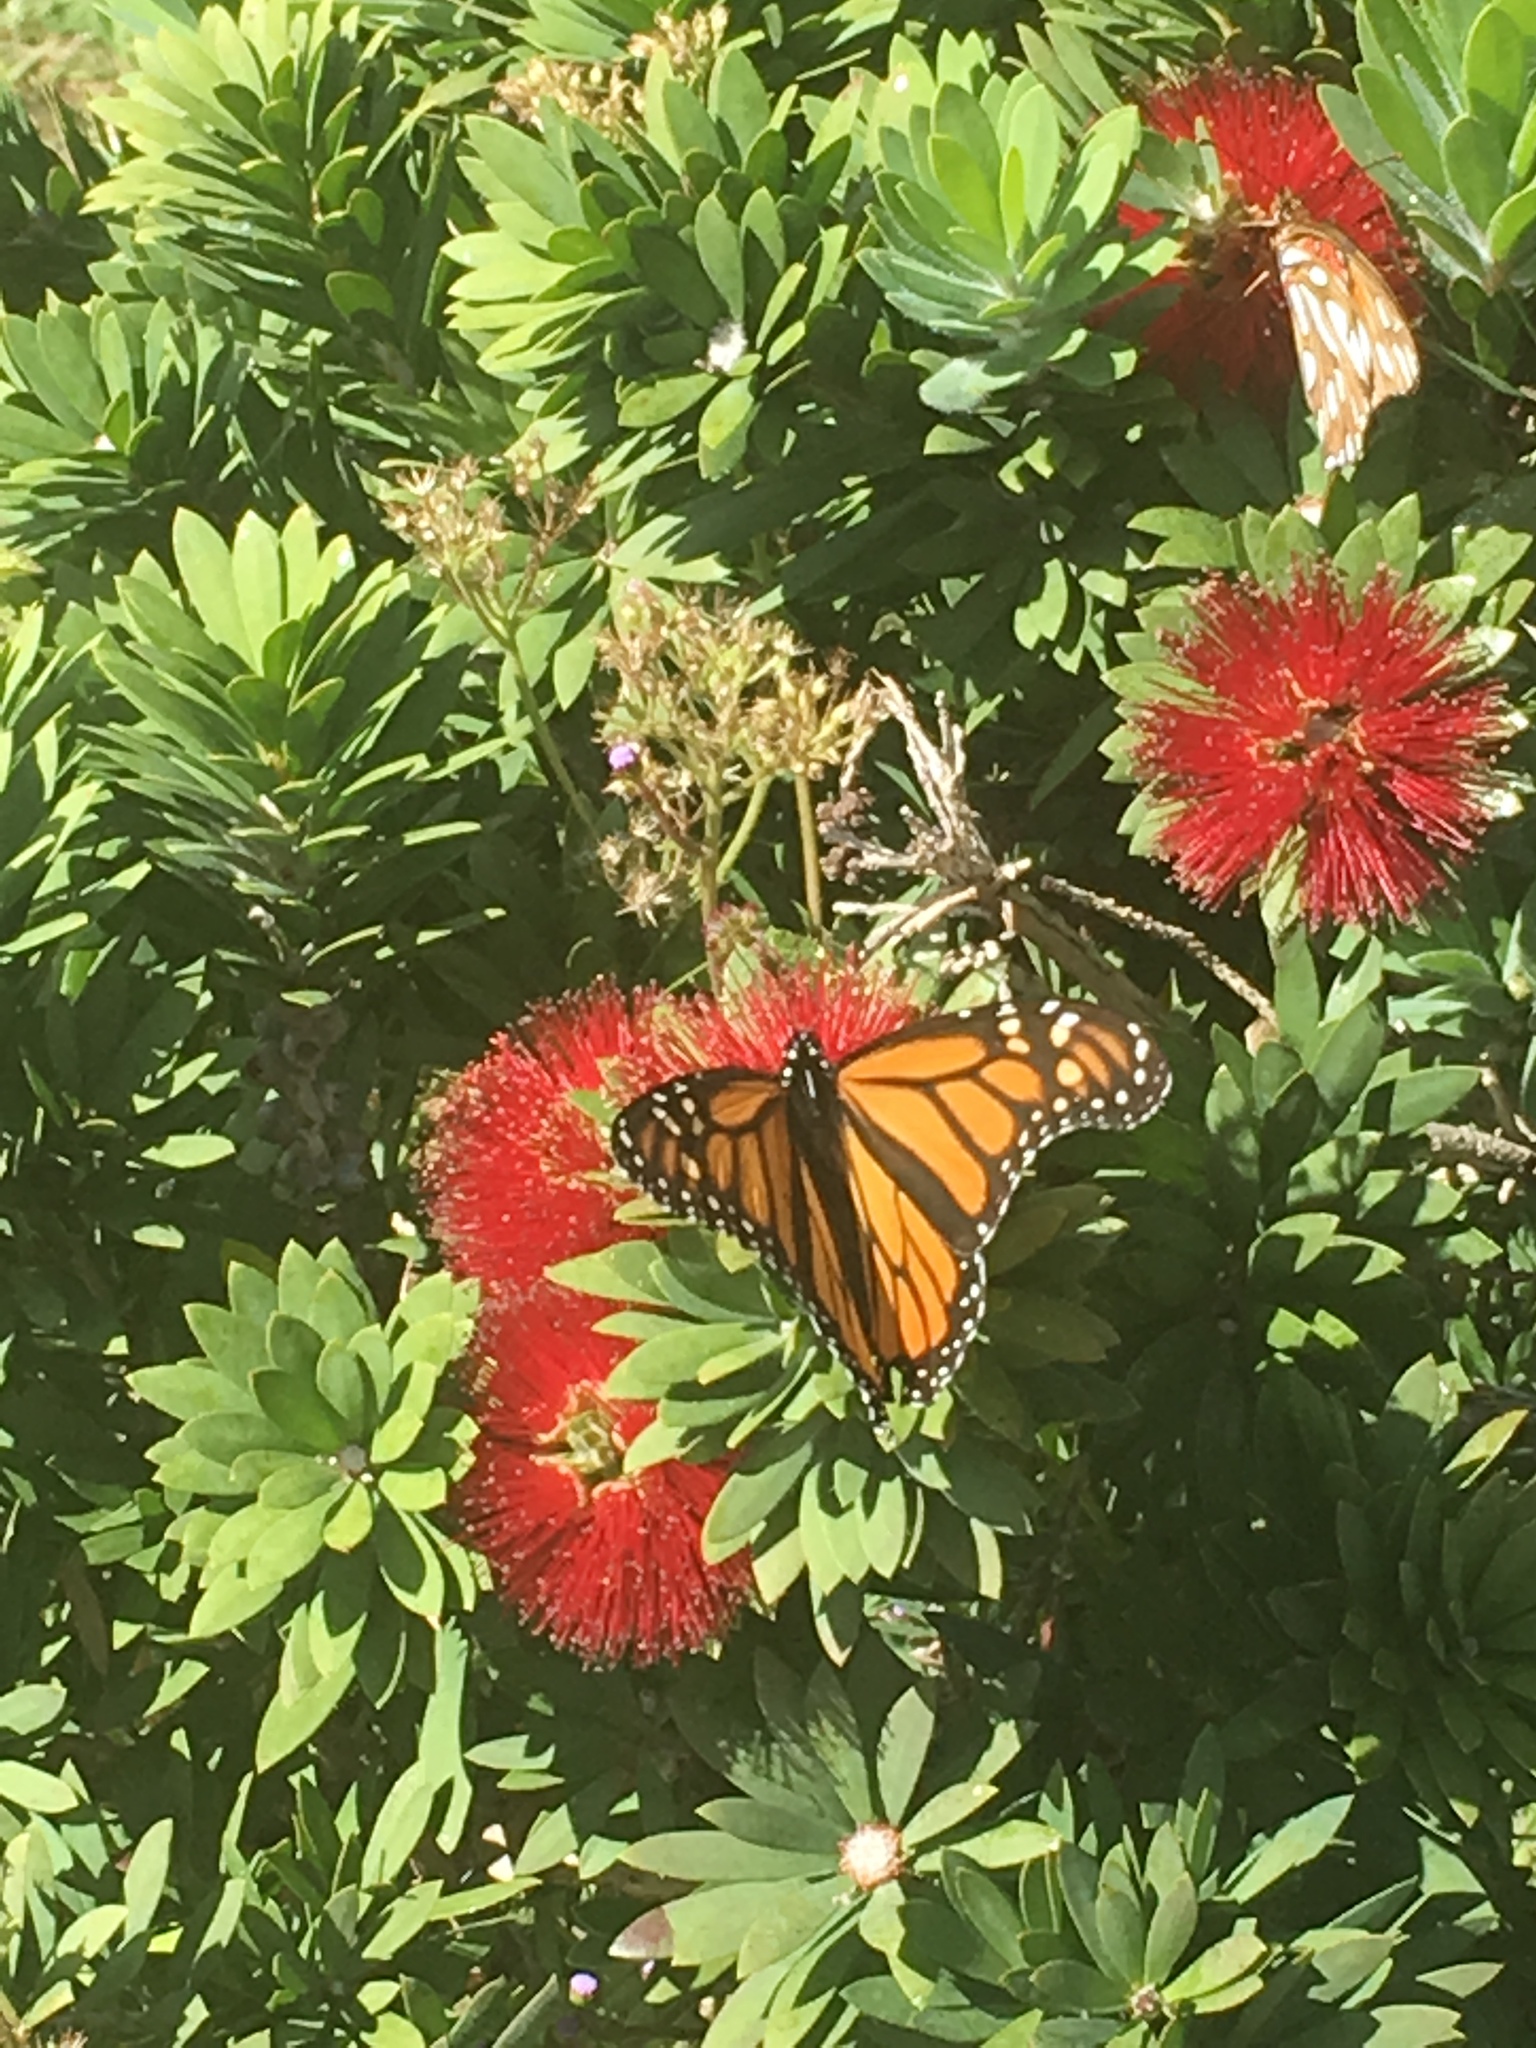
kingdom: Animalia
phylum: Arthropoda
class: Insecta
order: Lepidoptera
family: Nymphalidae
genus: Danaus
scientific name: Danaus plexippus
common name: Monarch
